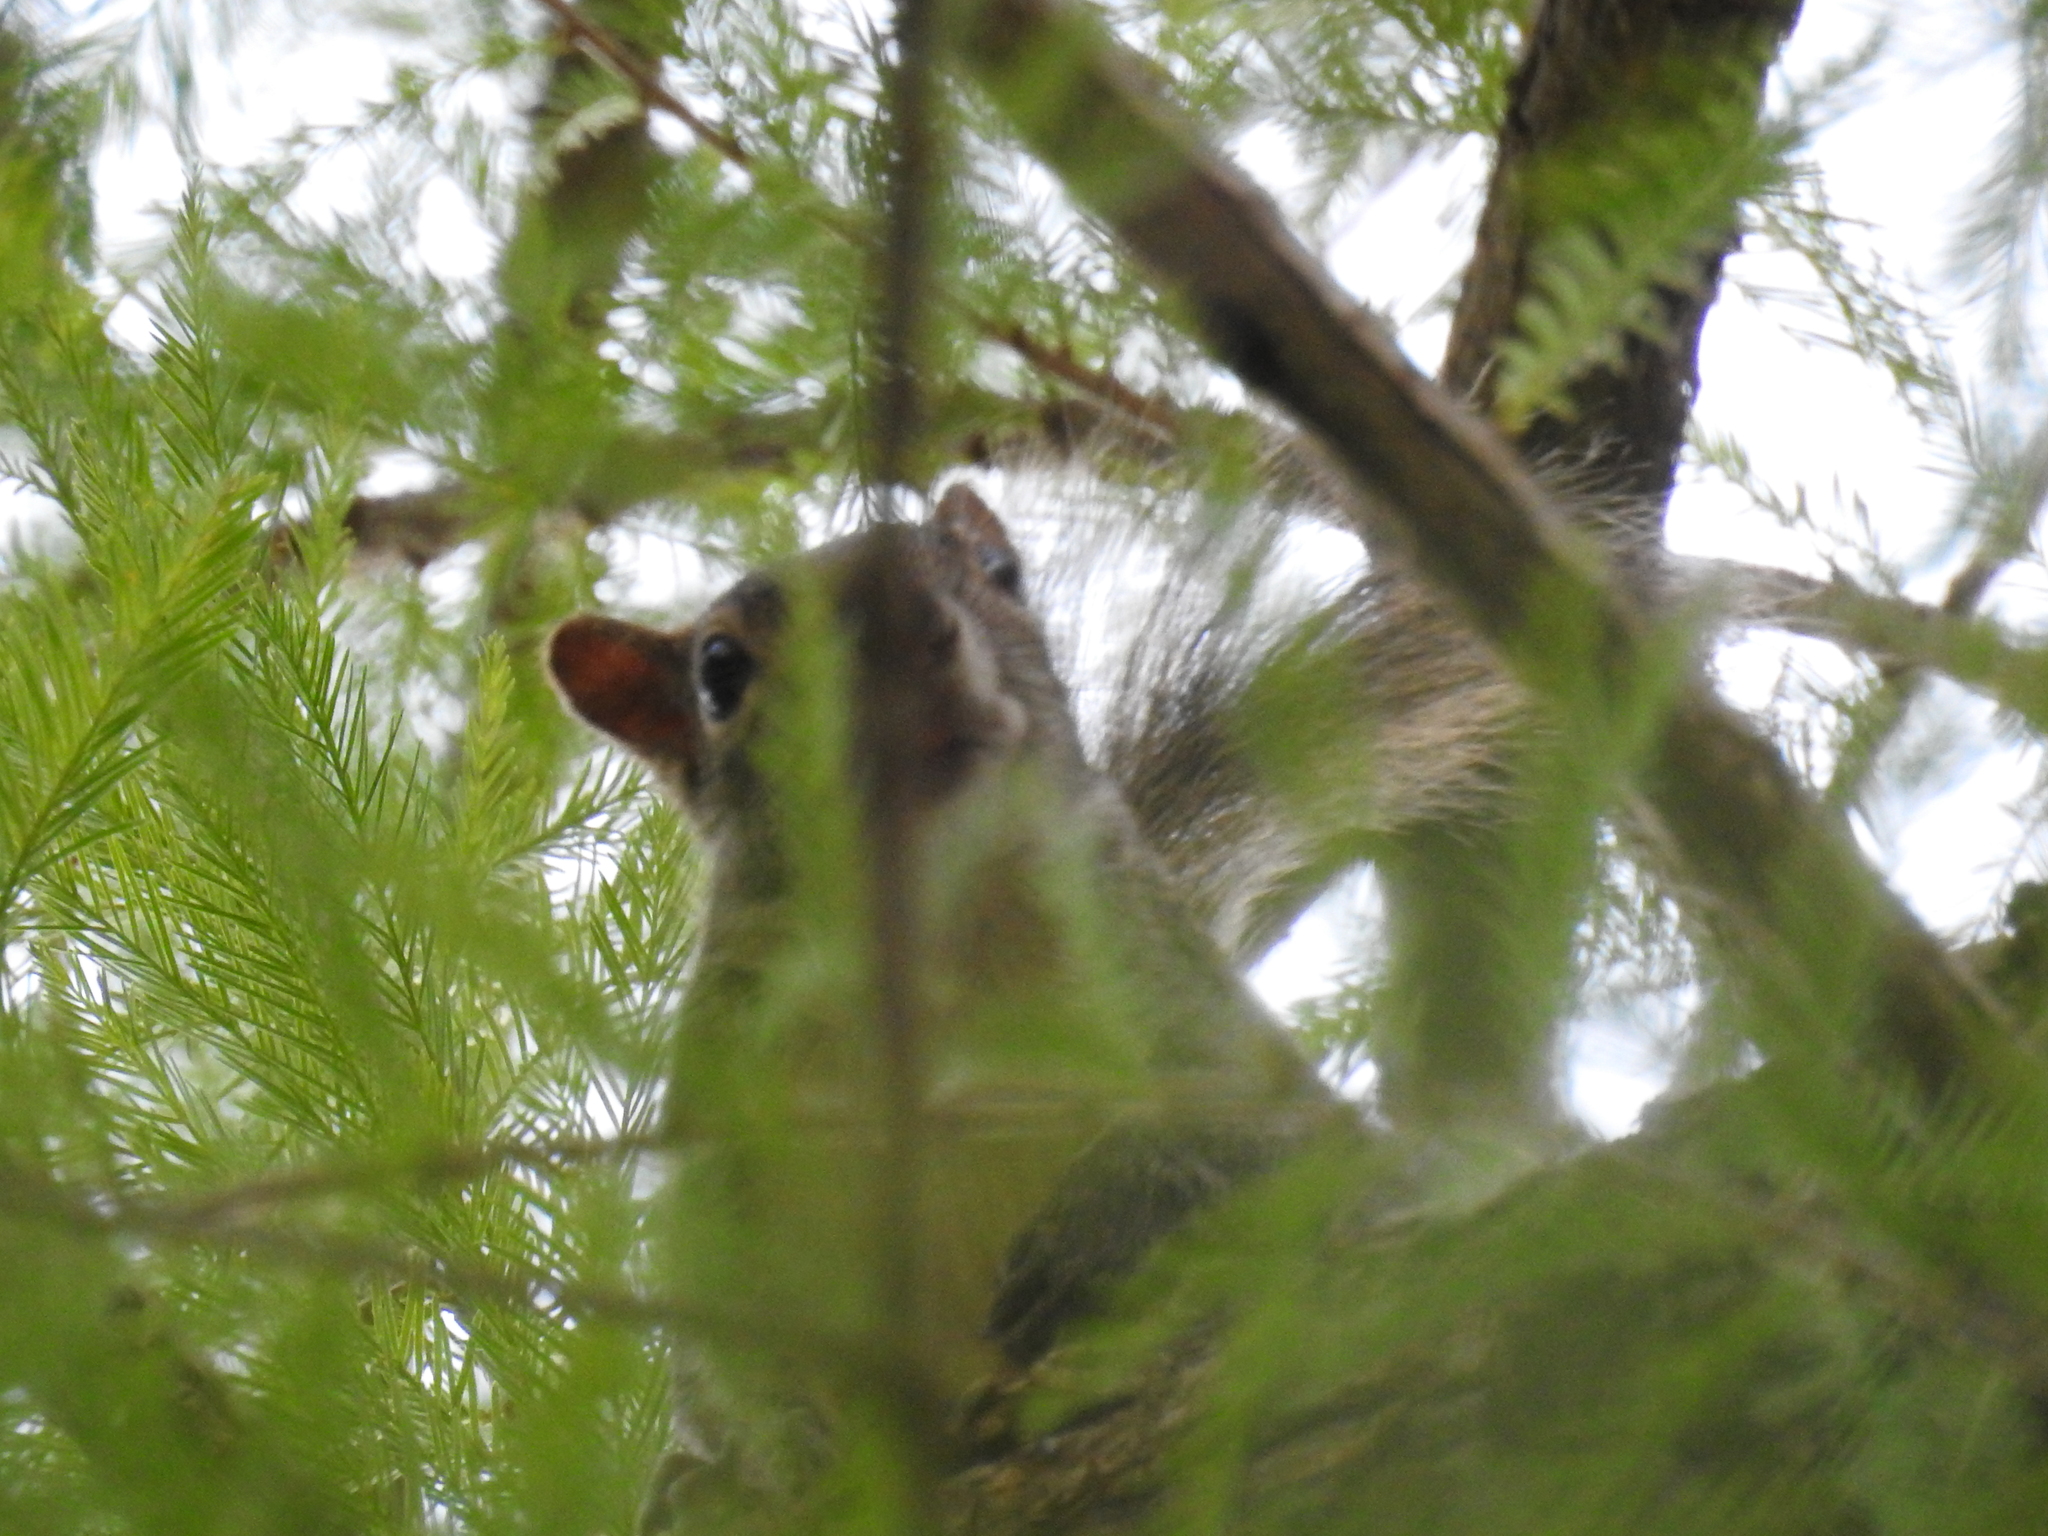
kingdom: Animalia
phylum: Chordata
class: Mammalia
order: Rodentia
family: Sciuridae
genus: Sciurus
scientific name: Sciurus colliaei
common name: Collie's squirrel
